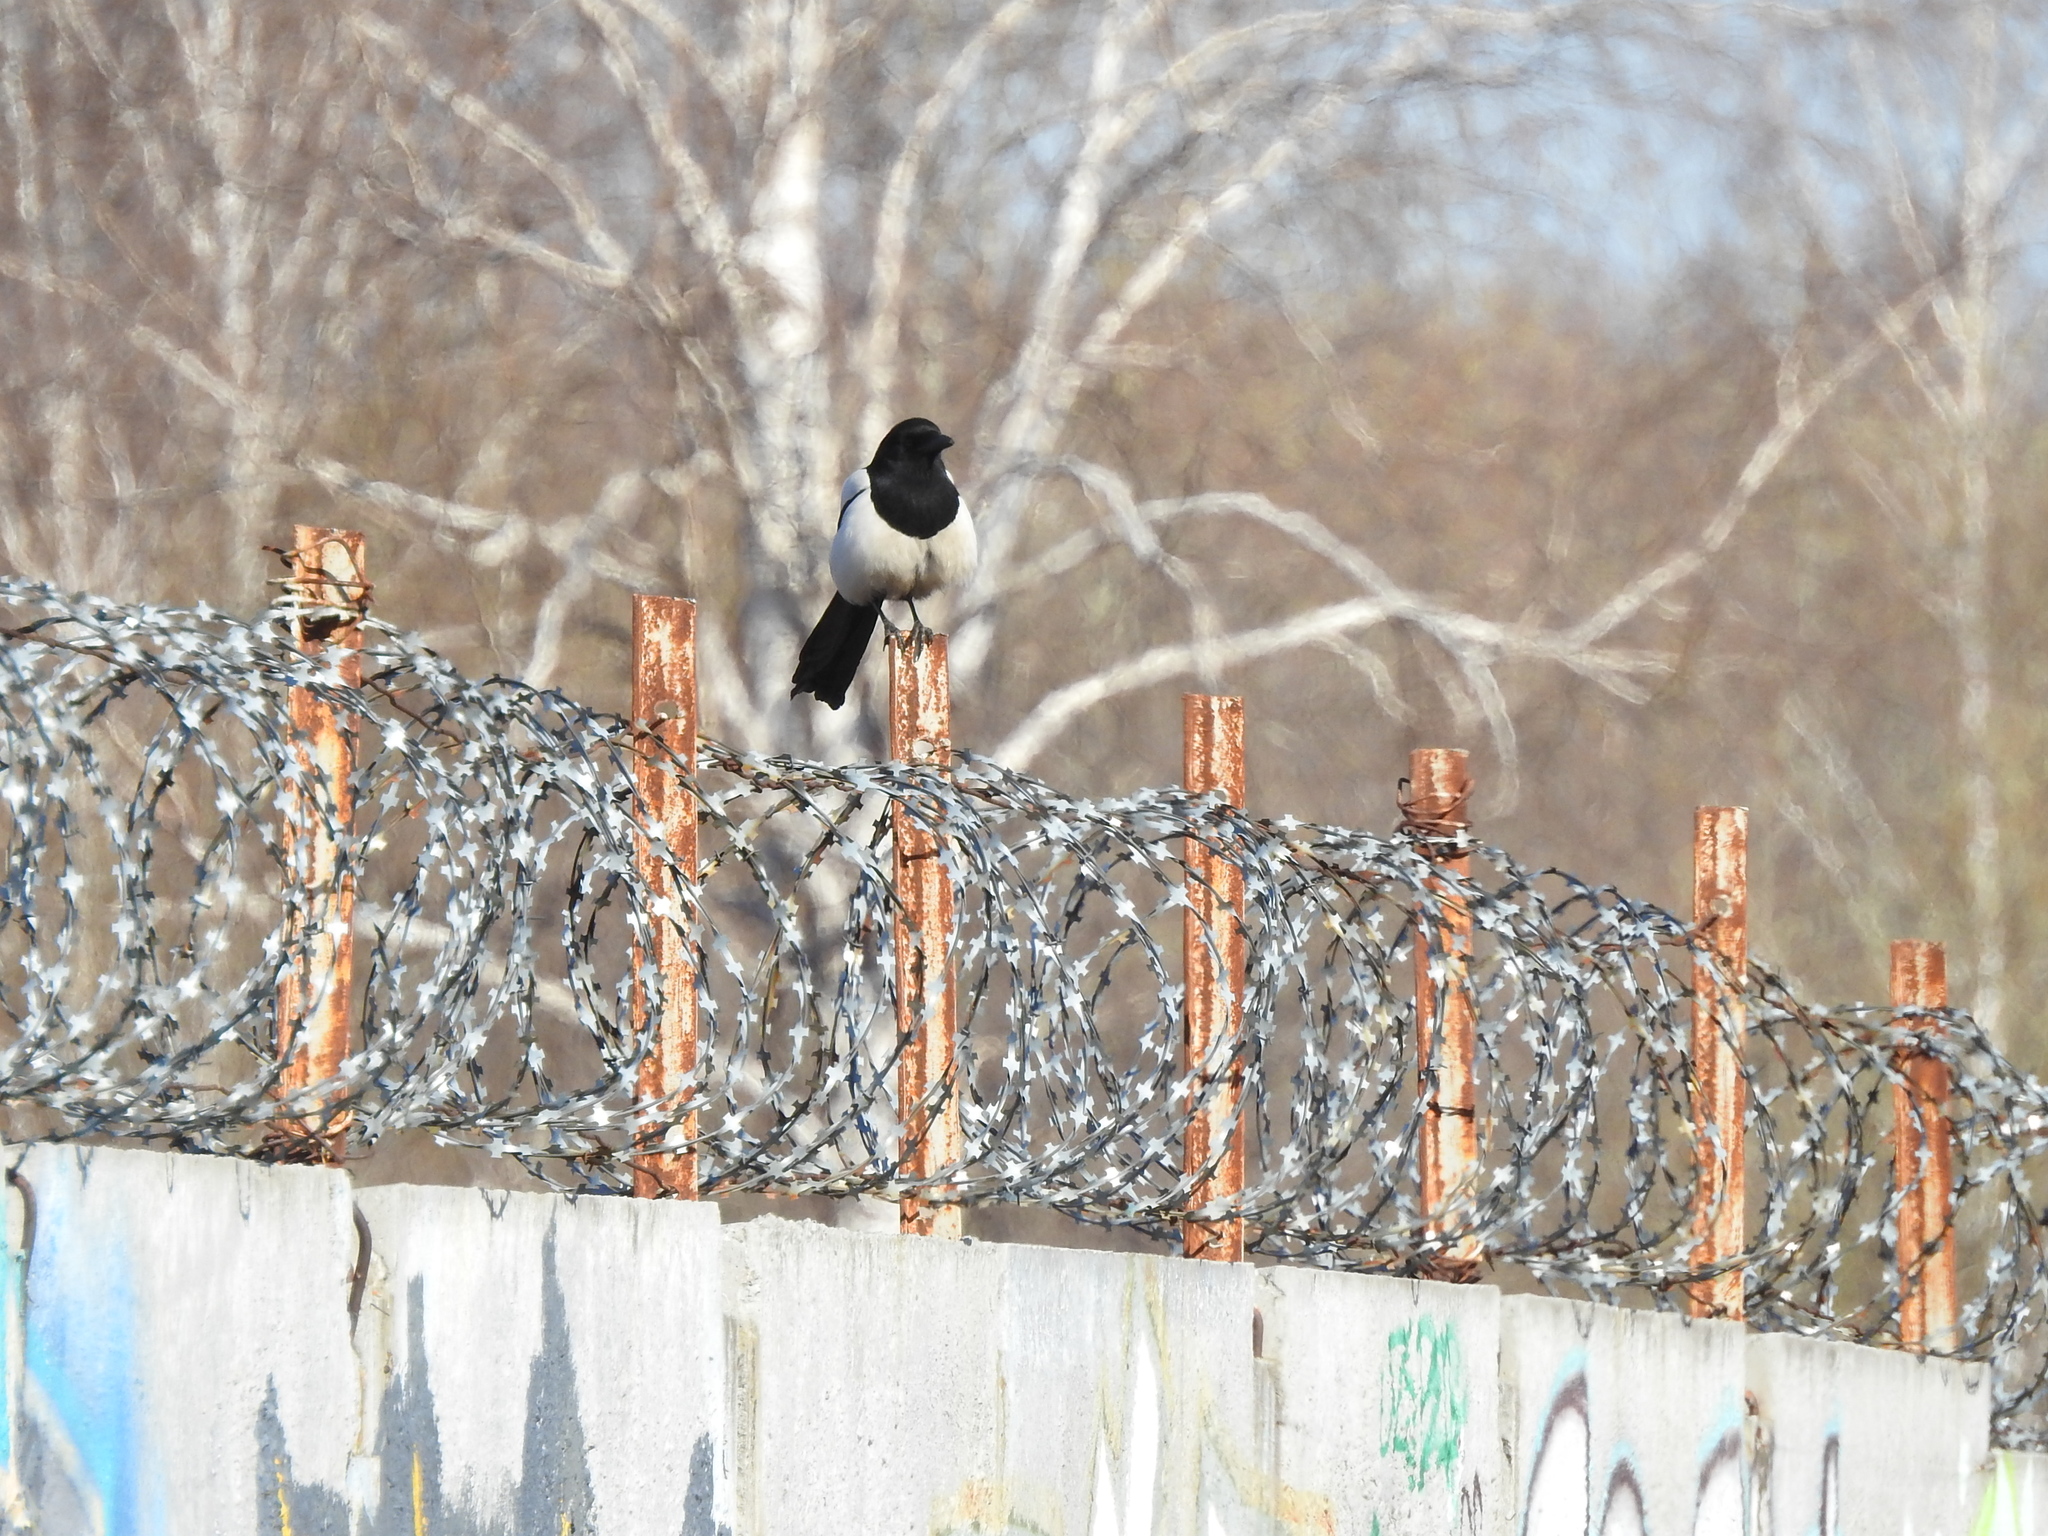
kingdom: Animalia
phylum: Chordata
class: Aves
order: Passeriformes
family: Corvidae
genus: Pica
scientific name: Pica pica
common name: Eurasian magpie
